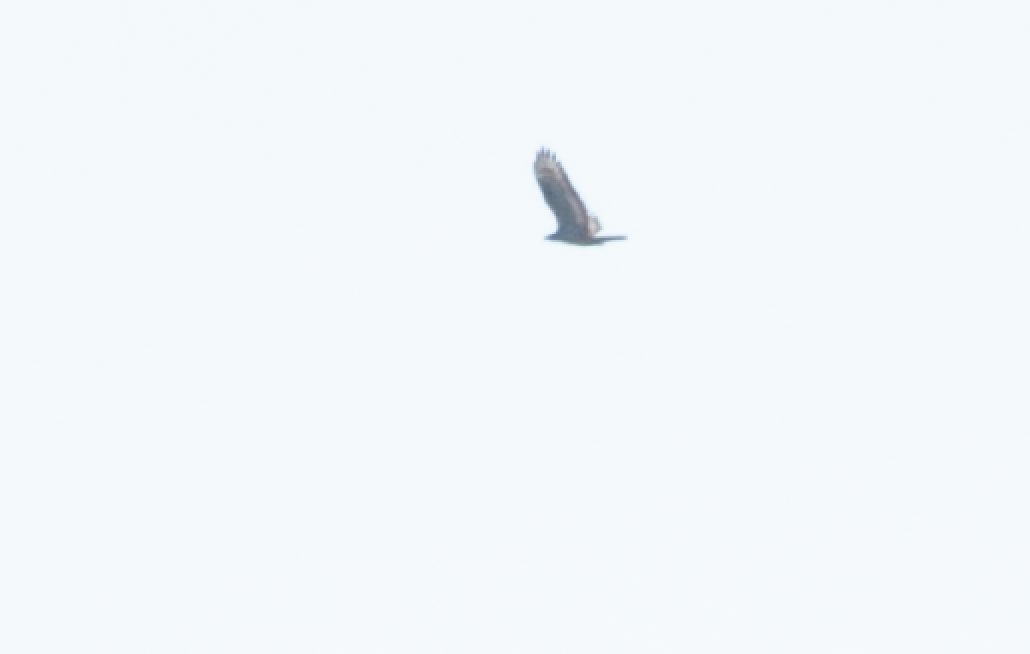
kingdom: Animalia
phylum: Chordata
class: Aves
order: Accipitriformes
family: Accipitridae
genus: Pernis
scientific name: Pernis apivorus
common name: European honey buzzard
